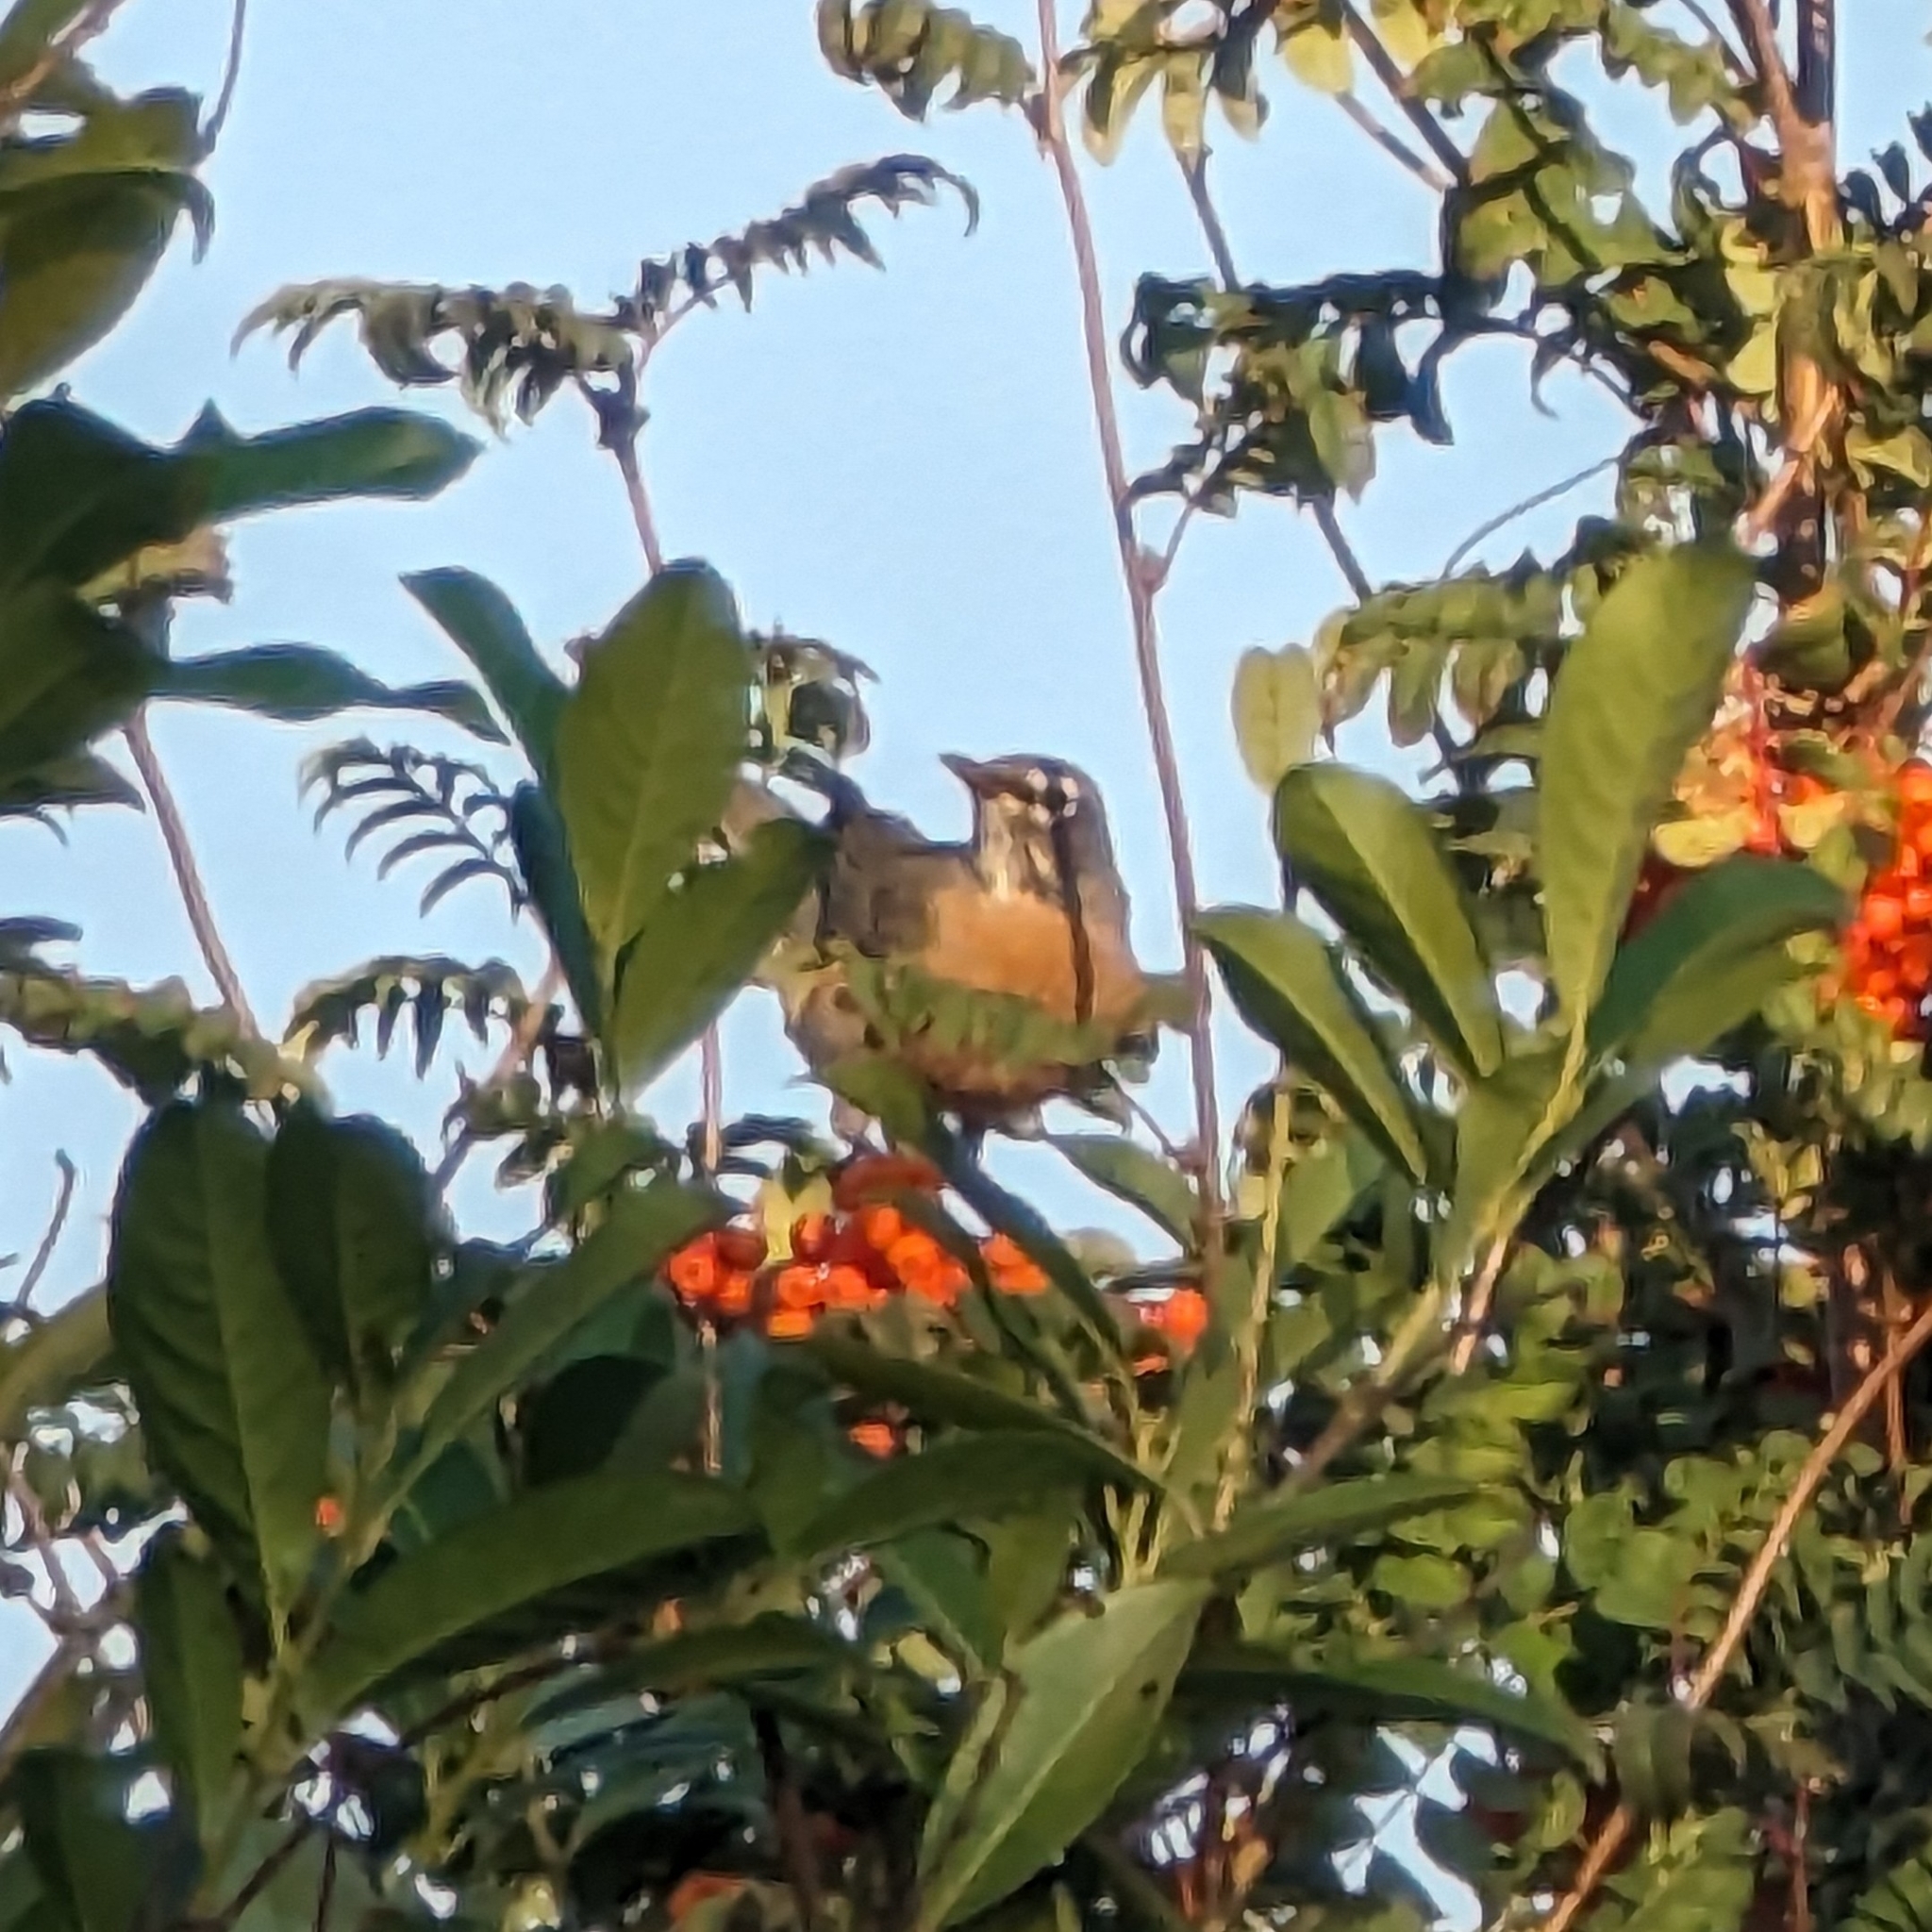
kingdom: Animalia
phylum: Chordata
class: Aves
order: Passeriformes
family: Turdidae
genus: Turdus
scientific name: Turdus migratorius
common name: American robin
